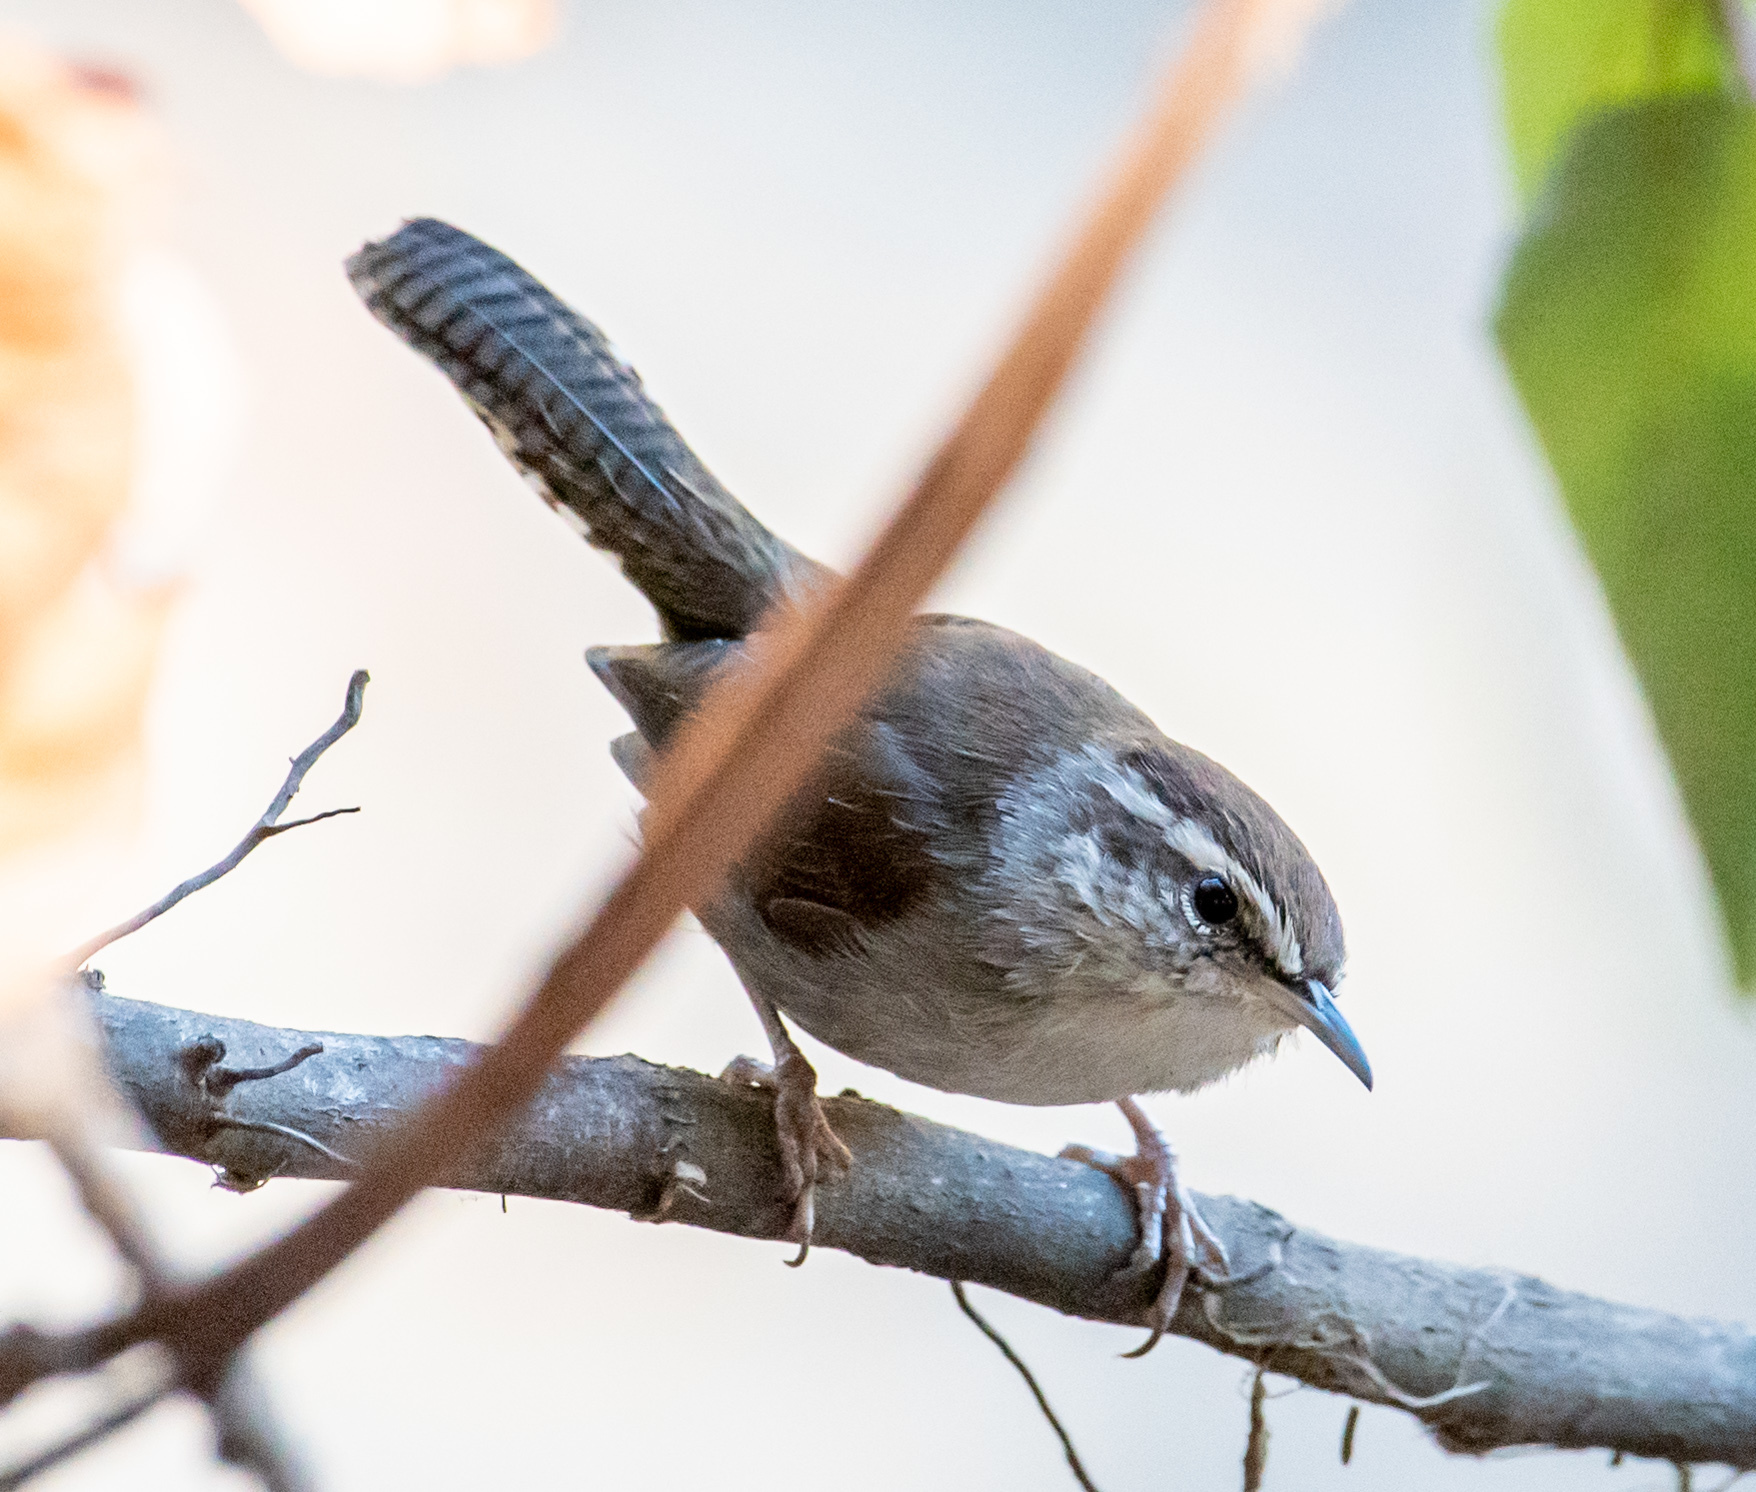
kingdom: Animalia
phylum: Chordata
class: Aves
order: Passeriformes
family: Troglodytidae
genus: Thryomanes
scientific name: Thryomanes bewickii
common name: Bewick's wren
